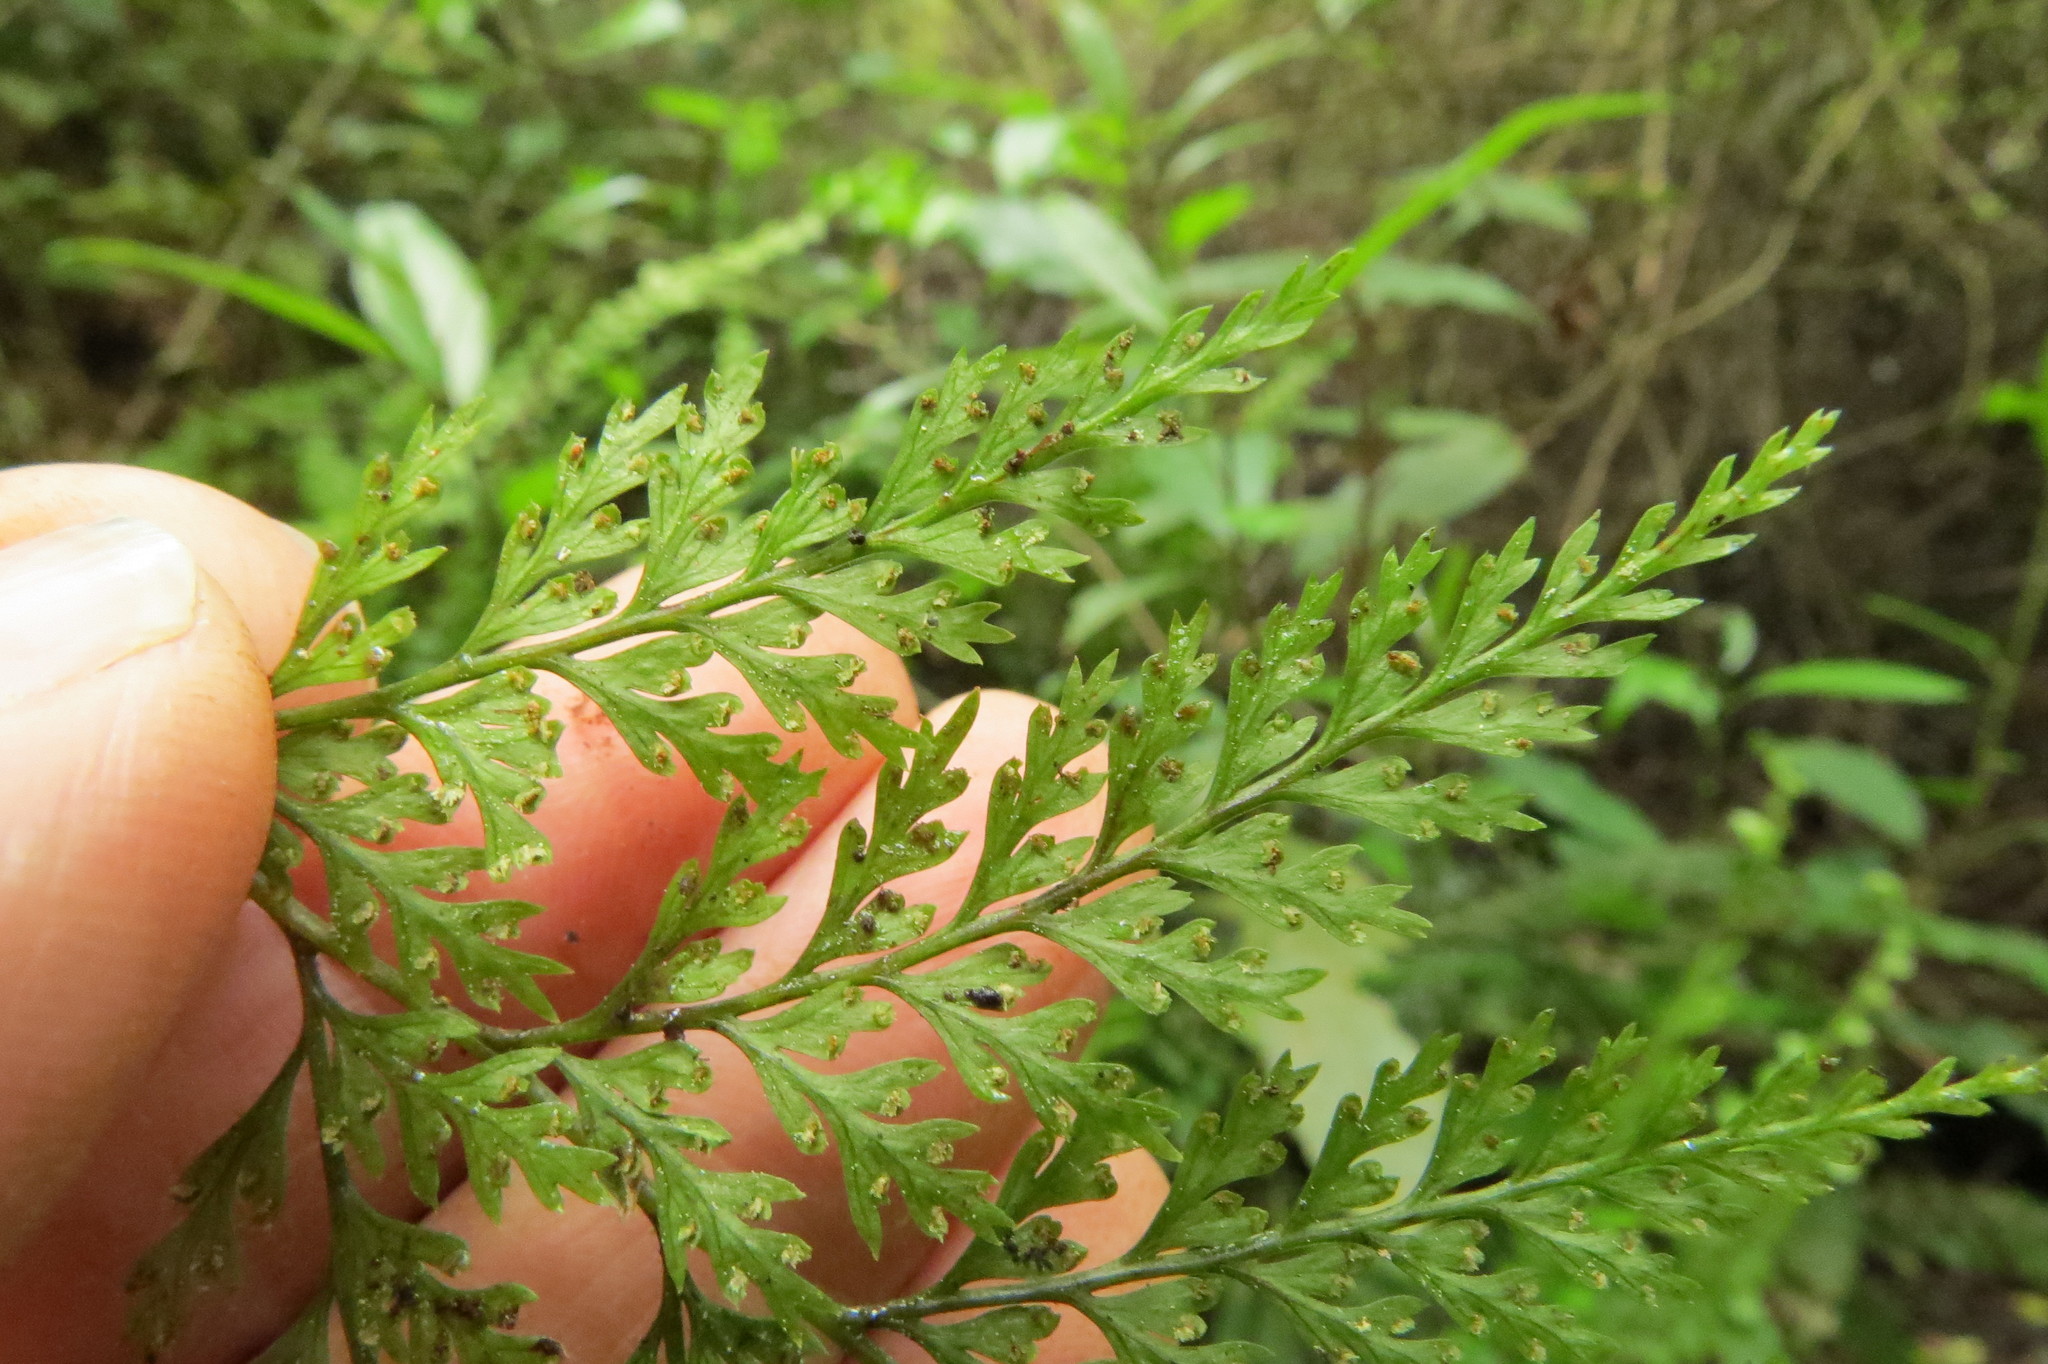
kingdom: Plantae
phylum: Tracheophyta
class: Polypodiopsida
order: Polypodiales
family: Dennstaedtiaceae
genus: Dennstaedtia
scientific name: Dennstaedtia novae-zelandiae
